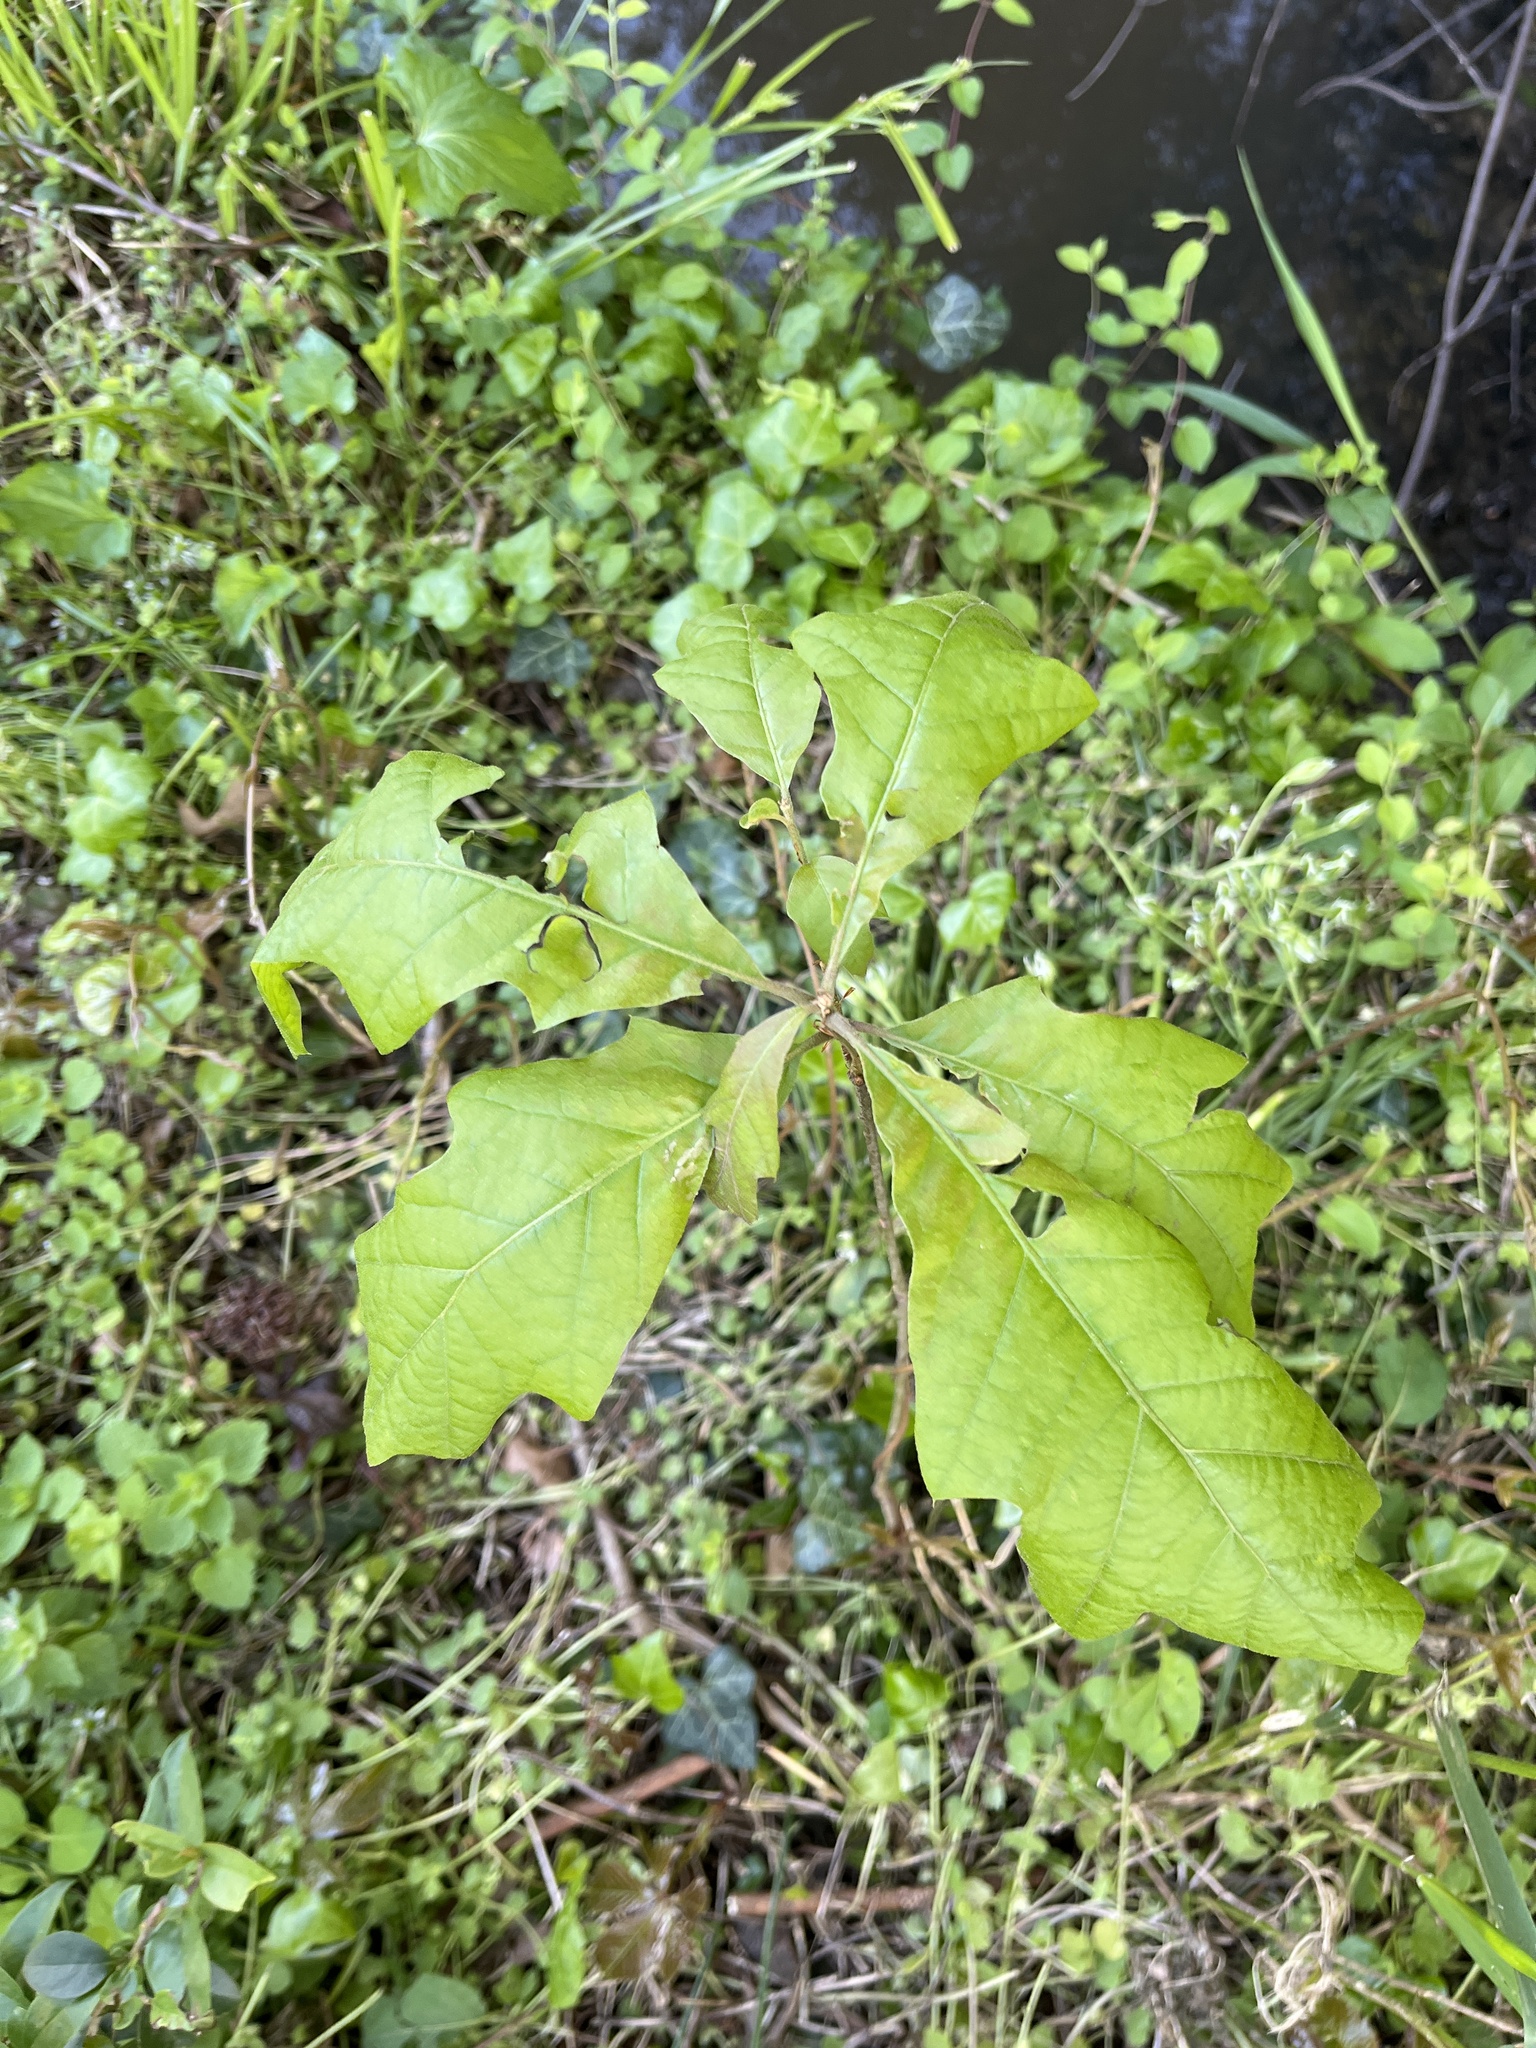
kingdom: Plantae
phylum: Tracheophyta
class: Magnoliopsida
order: Fagales
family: Fagaceae
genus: Quercus
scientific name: Quercus alba
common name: White oak
